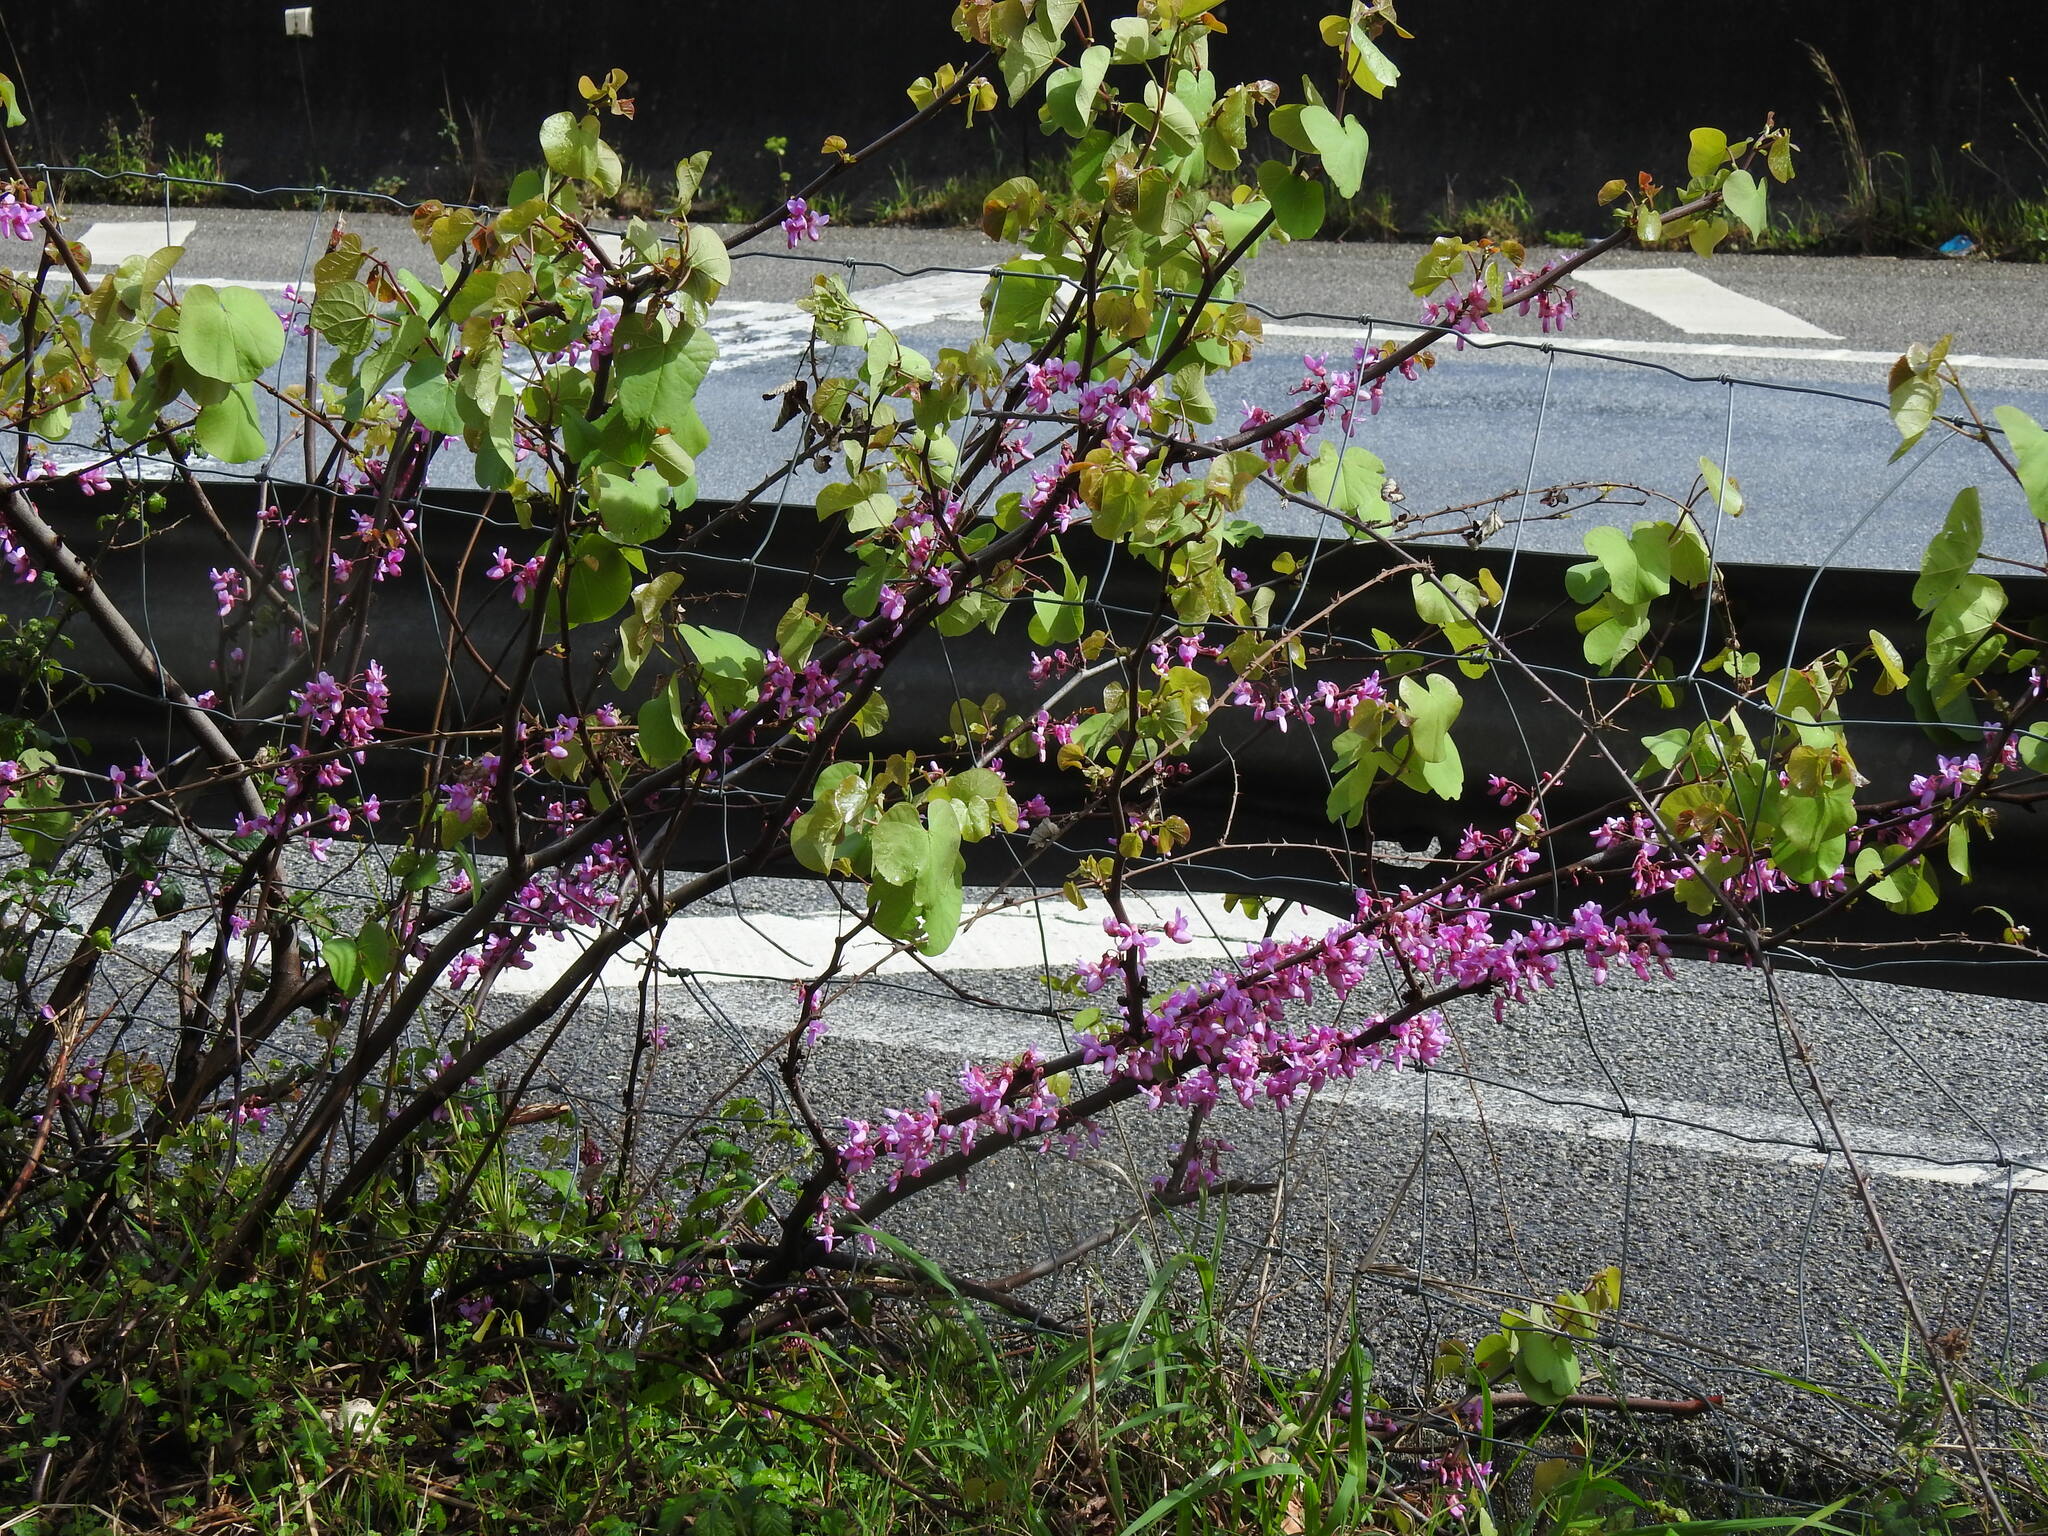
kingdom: Plantae
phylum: Tracheophyta
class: Magnoliopsida
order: Fabales
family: Fabaceae
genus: Cercis
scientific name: Cercis siliquastrum
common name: Judas tree
